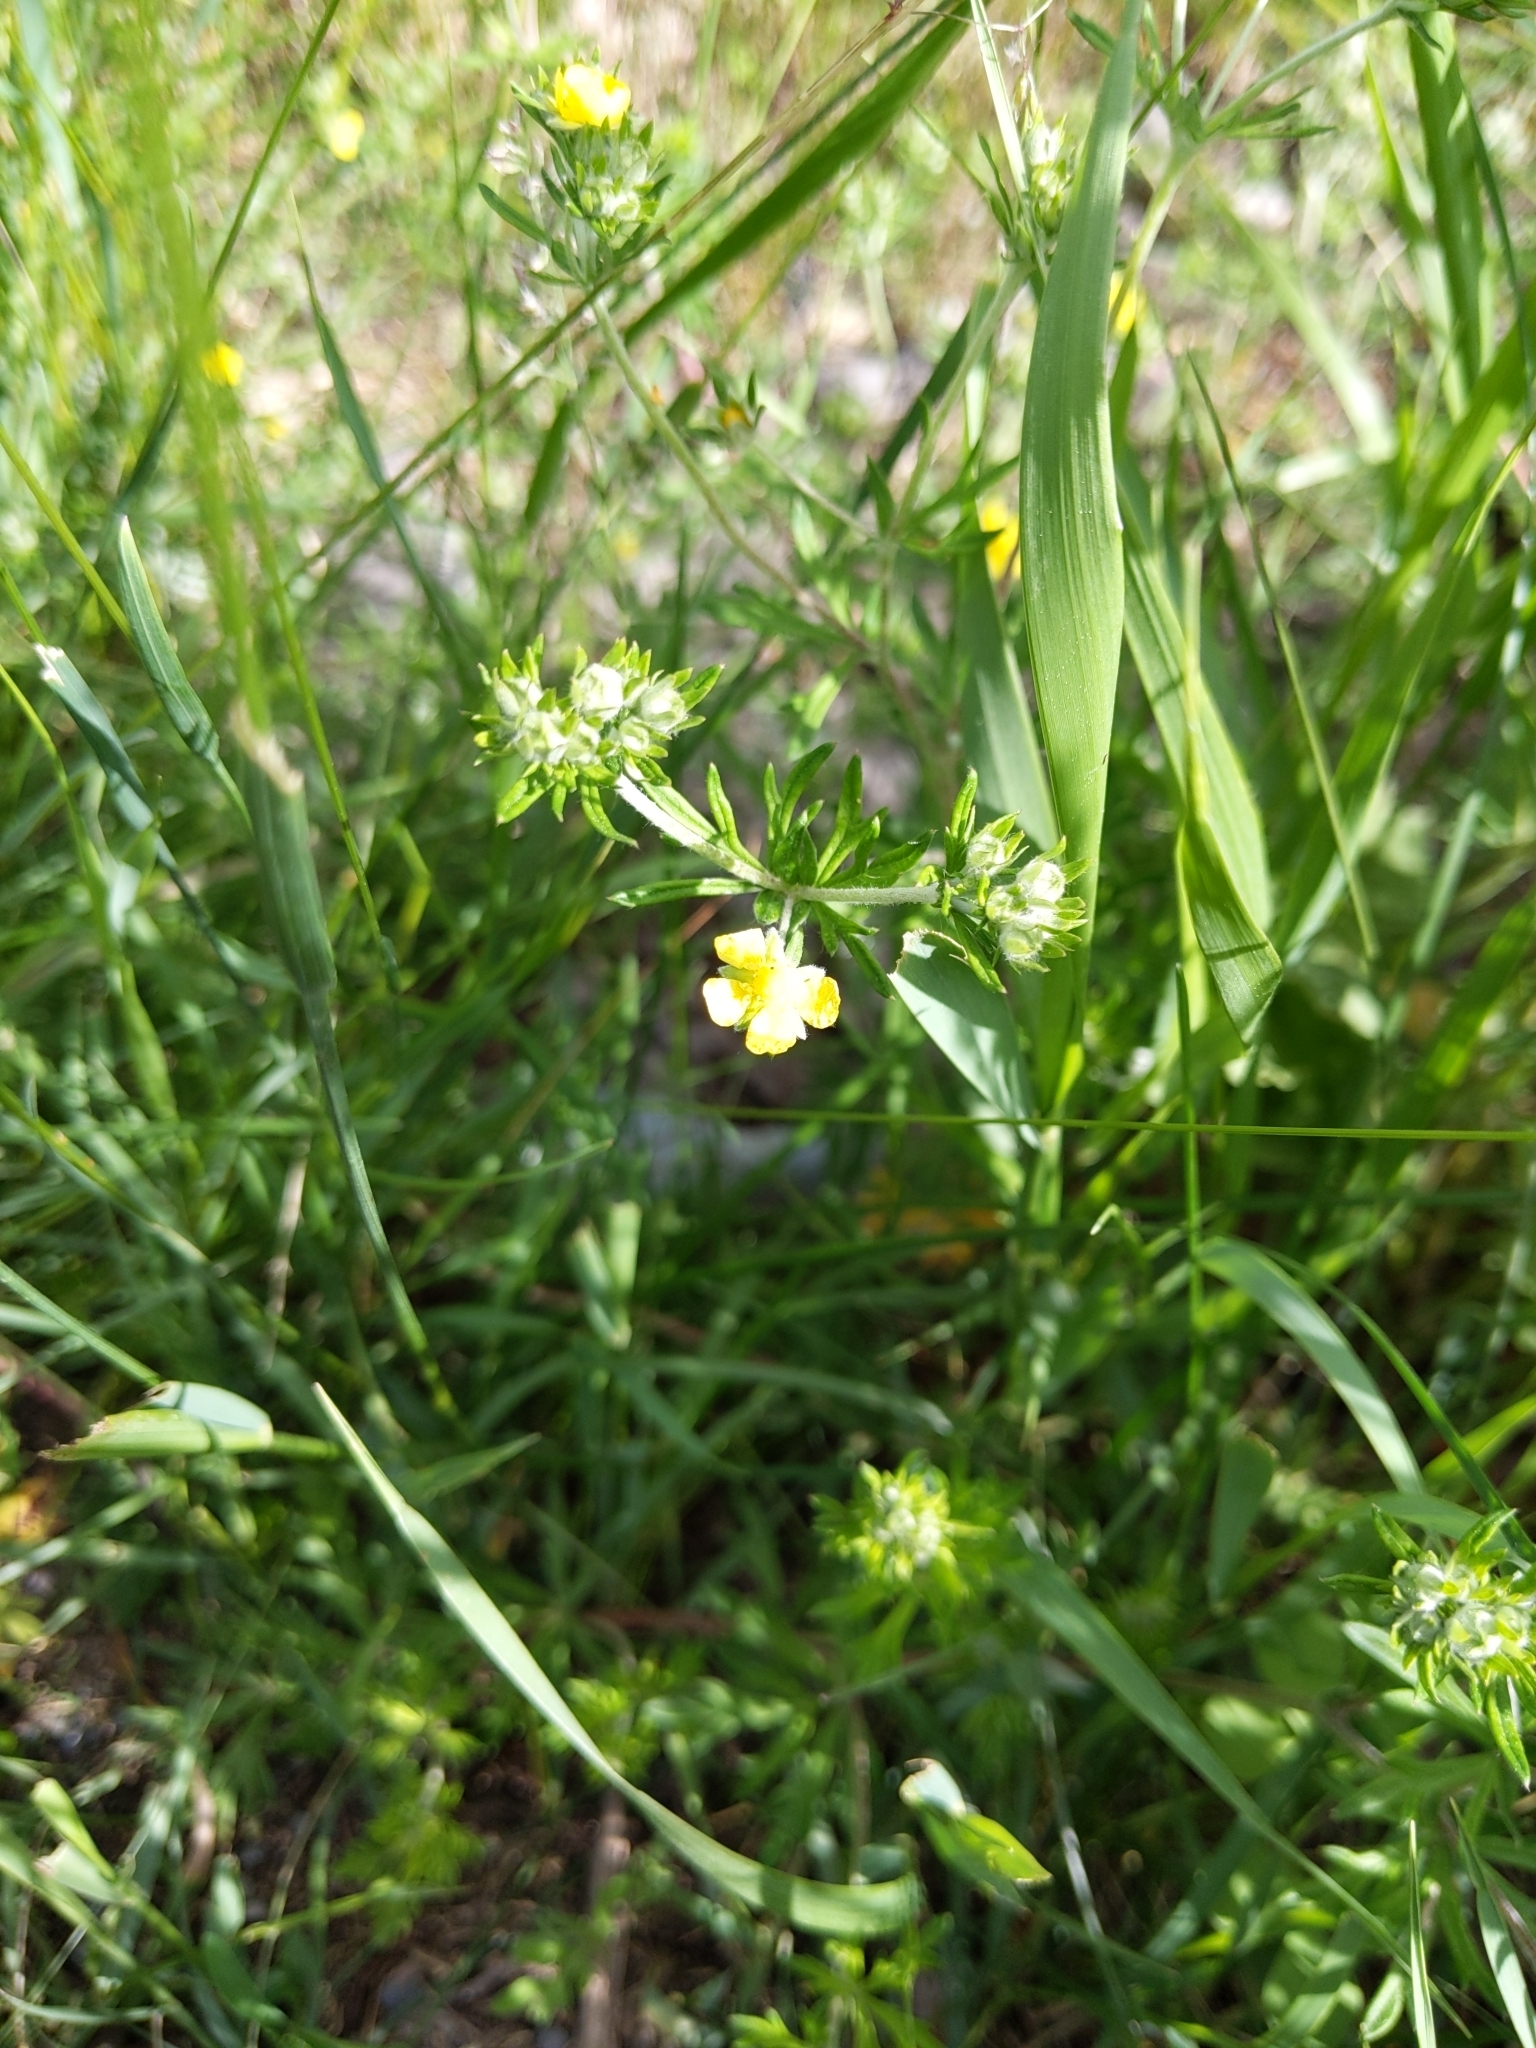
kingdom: Plantae
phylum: Tracheophyta
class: Magnoliopsida
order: Rosales
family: Rosaceae
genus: Potentilla
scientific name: Potentilla argentea
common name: Hoary cinquefoil
